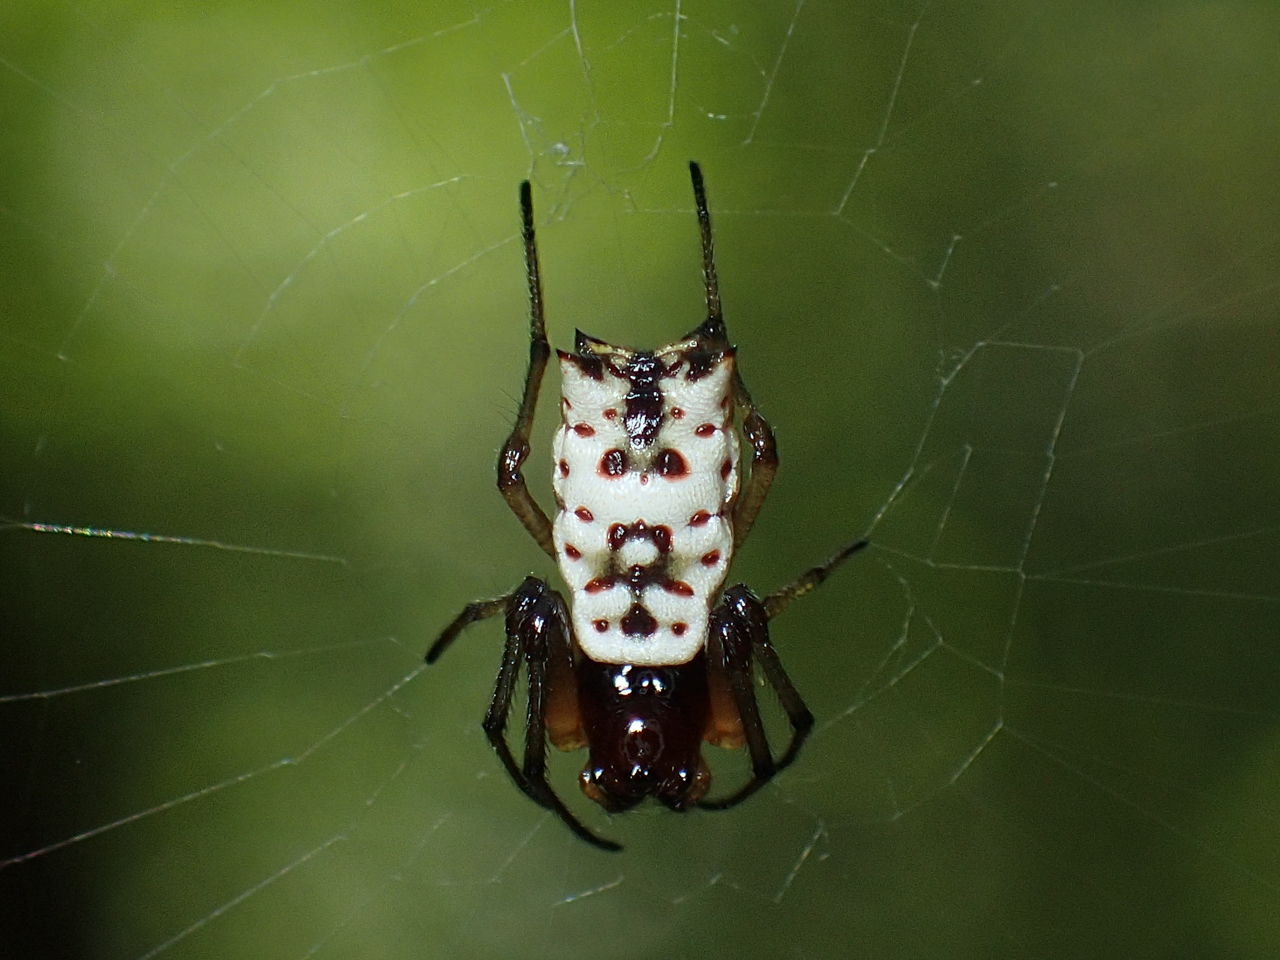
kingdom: Animalia
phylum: Arthropoda
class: Arachnida
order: Araneae
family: Araneidae
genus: Micrathena
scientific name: Micrathena mitrata
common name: Orb weavers
